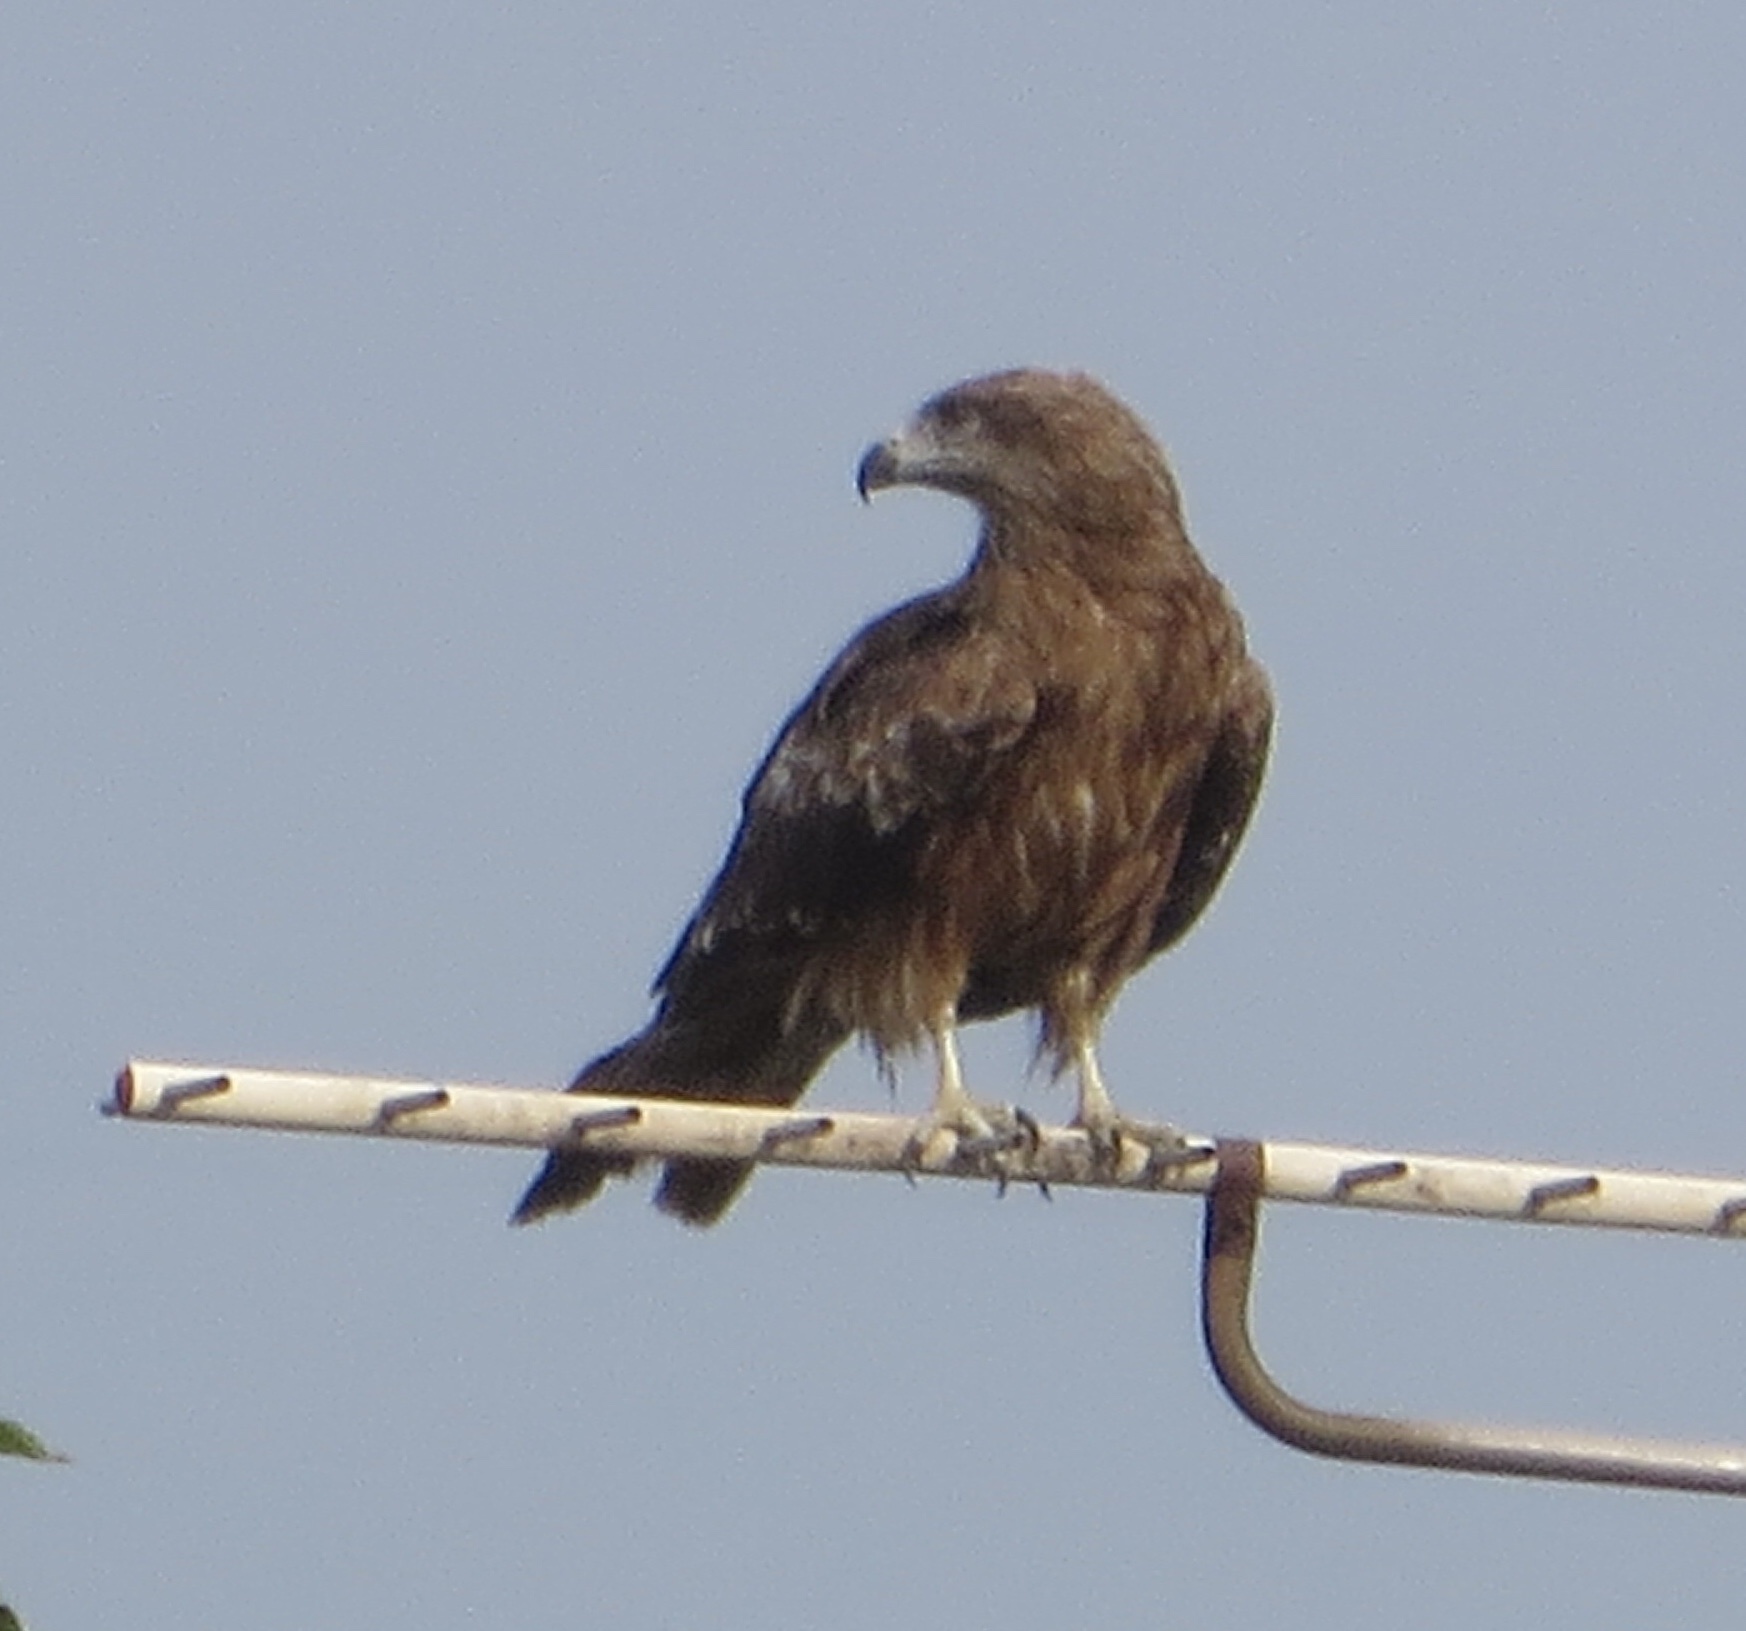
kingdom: Animalia
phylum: Chordata
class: Aves
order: Accipitriformes
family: Accipitridae
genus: Milvus
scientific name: Milvus migrans
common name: Black kite
